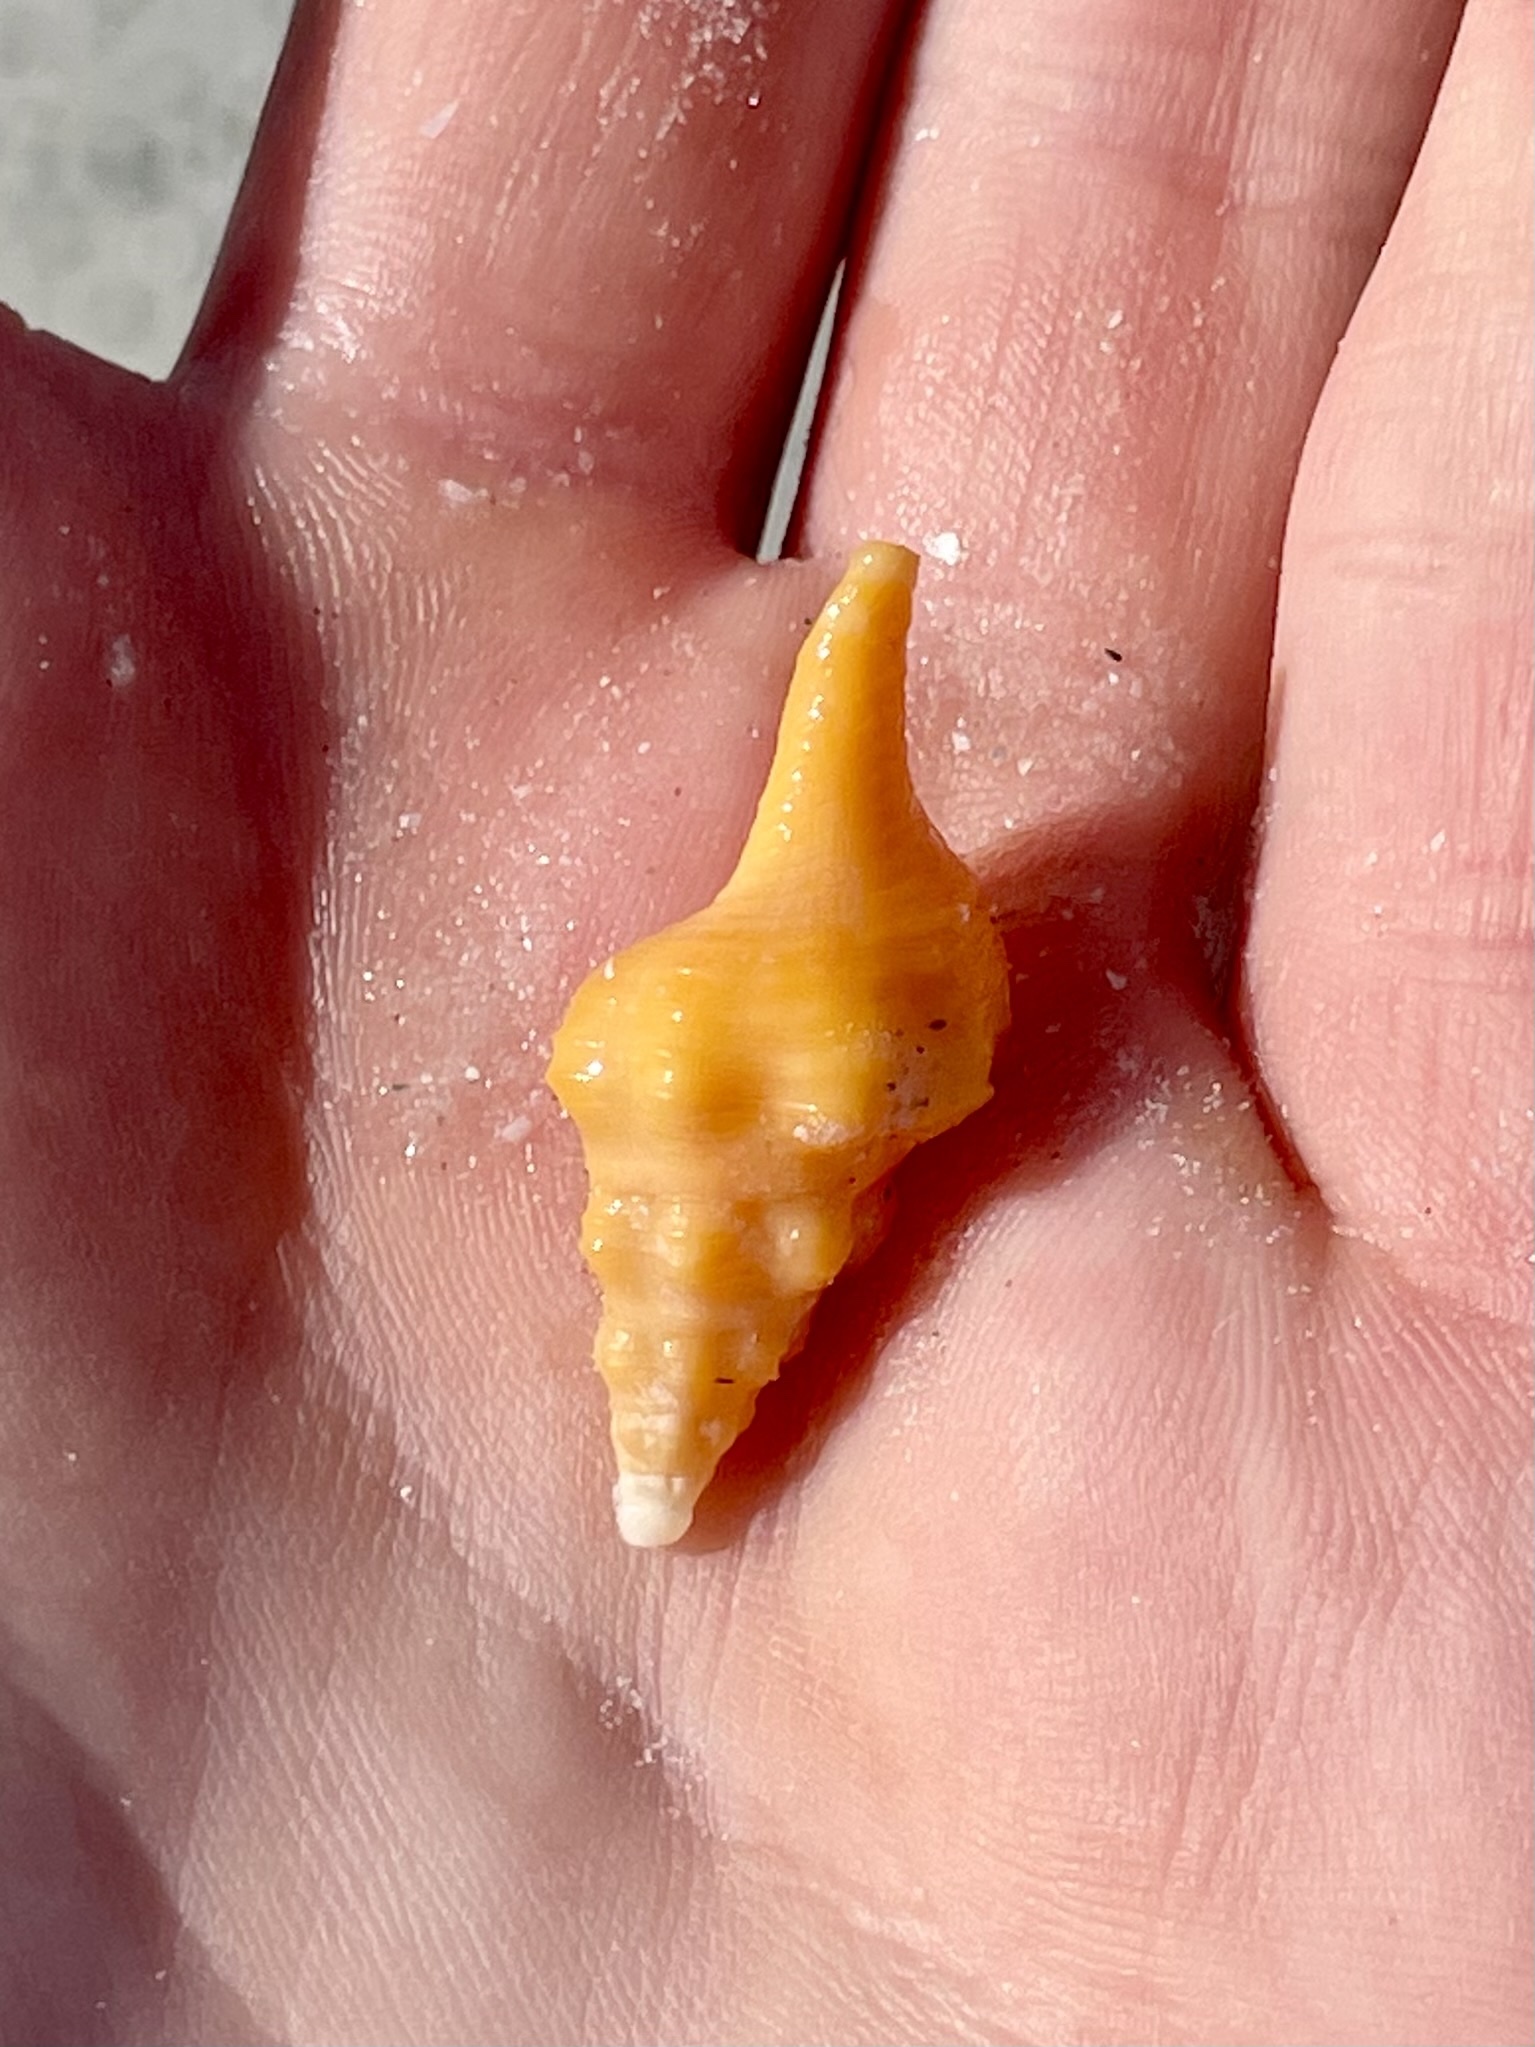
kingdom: Animalia
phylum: Mollusca
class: Gastropoda
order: Neogastropoda
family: Fasciolariidae
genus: Triplofusus
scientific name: Triplofusus giganteus
